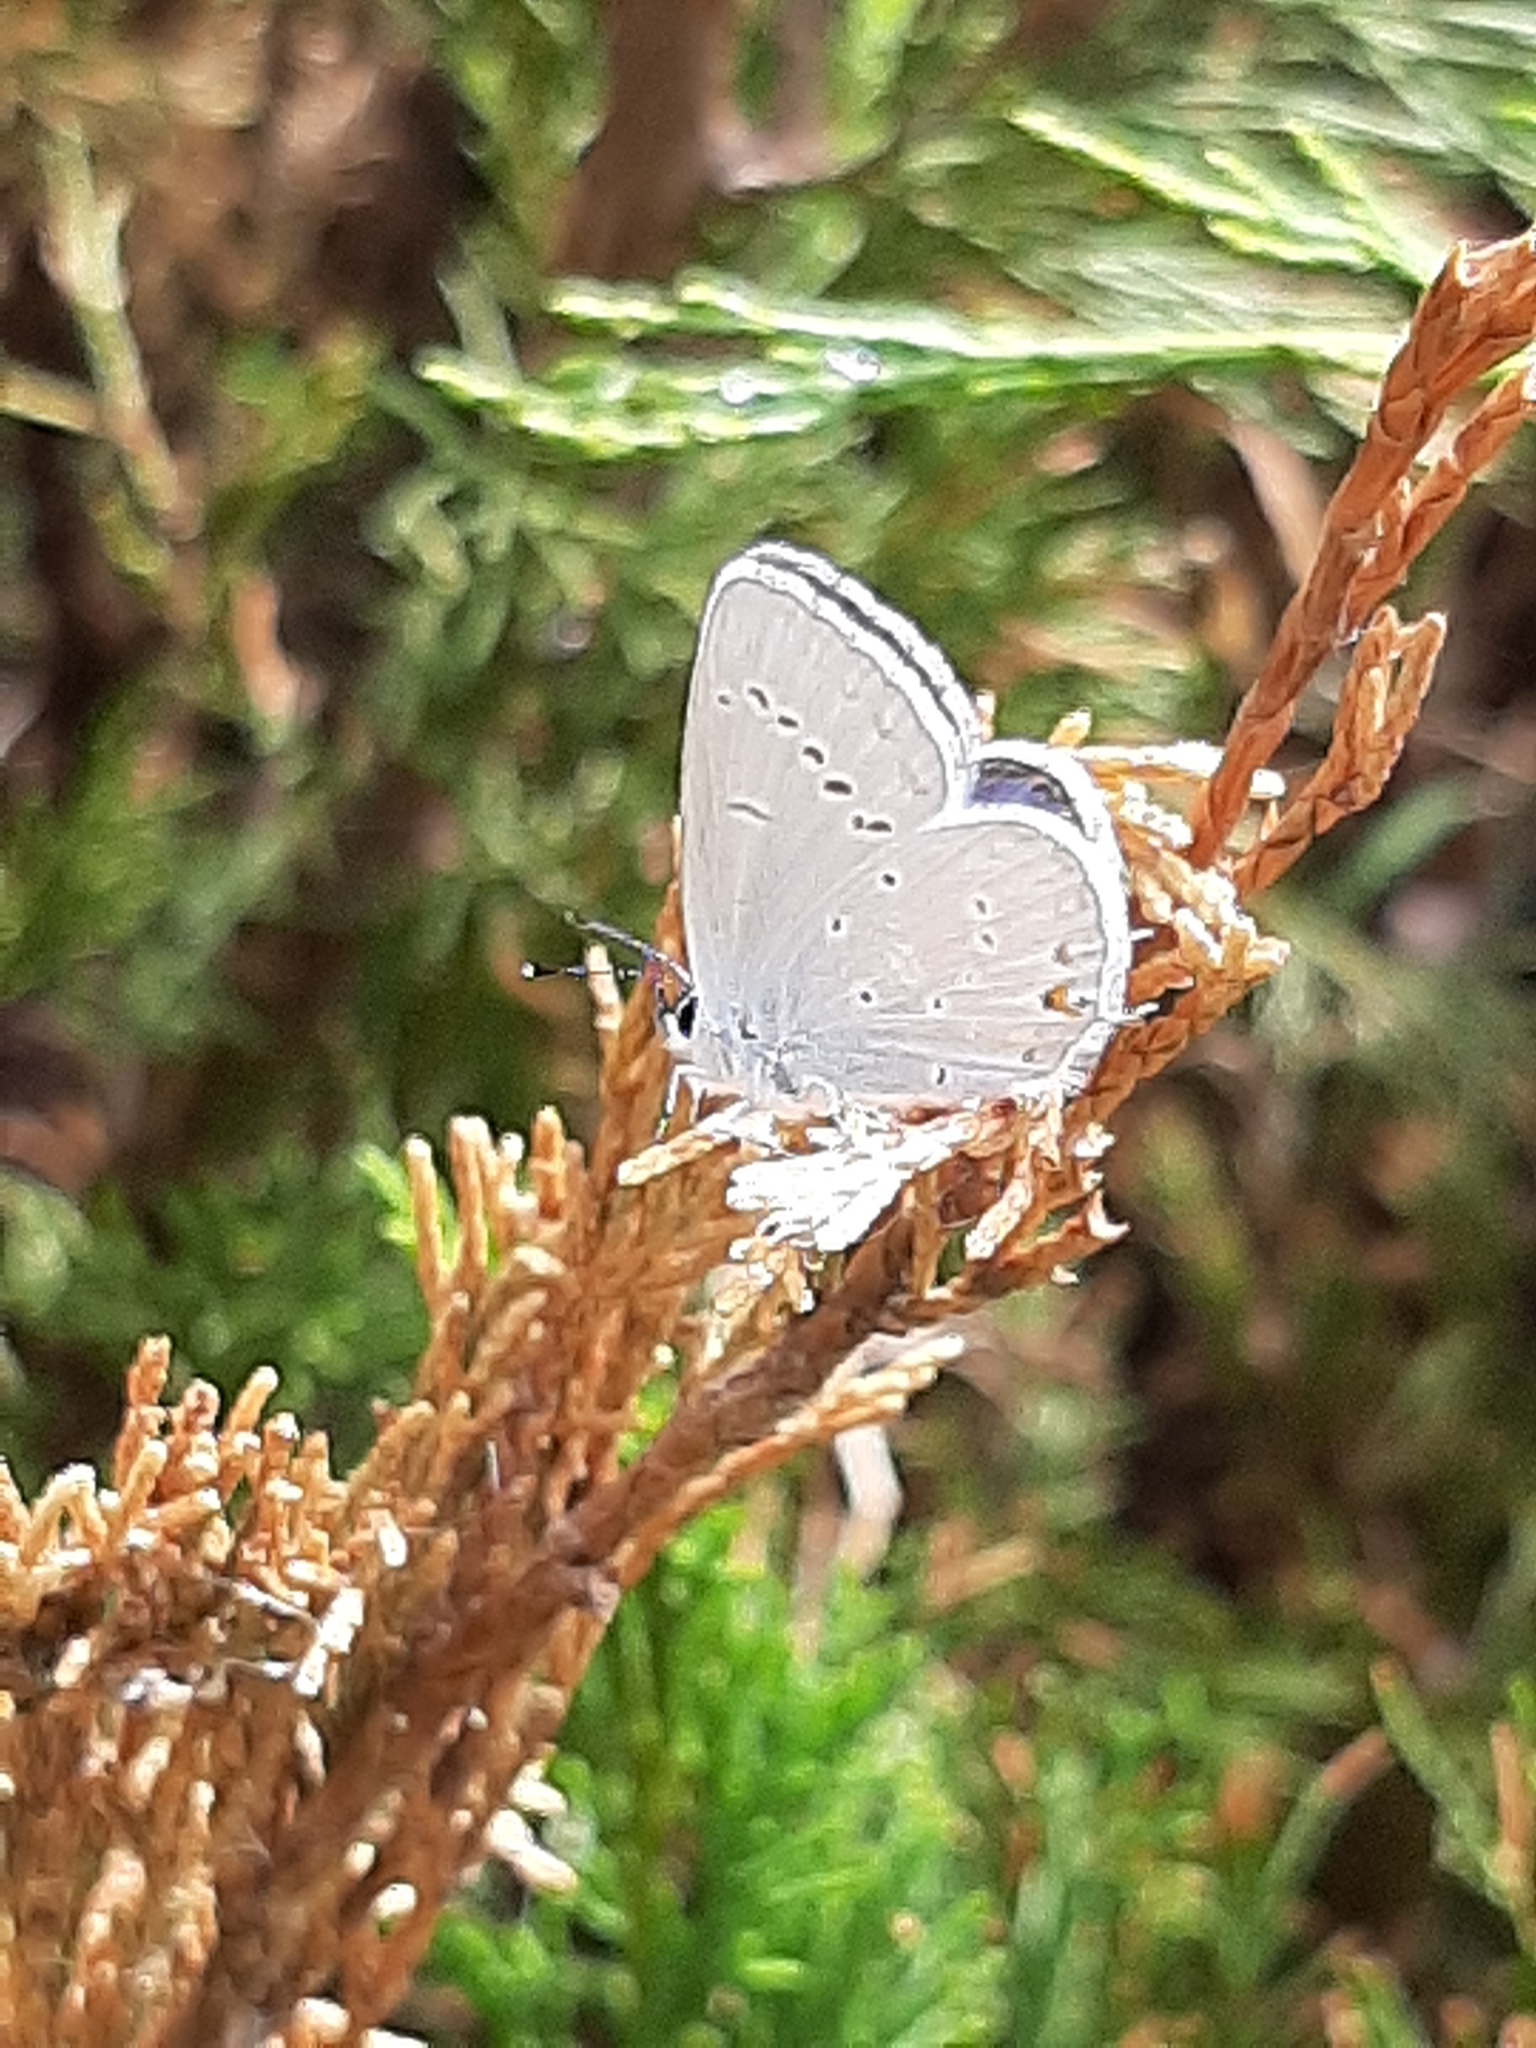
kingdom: Animalia
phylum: Arthropoda
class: Insecta
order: Lepidoptera
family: Lycaenidae
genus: Elkalyce
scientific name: Elkalyce amyntula
